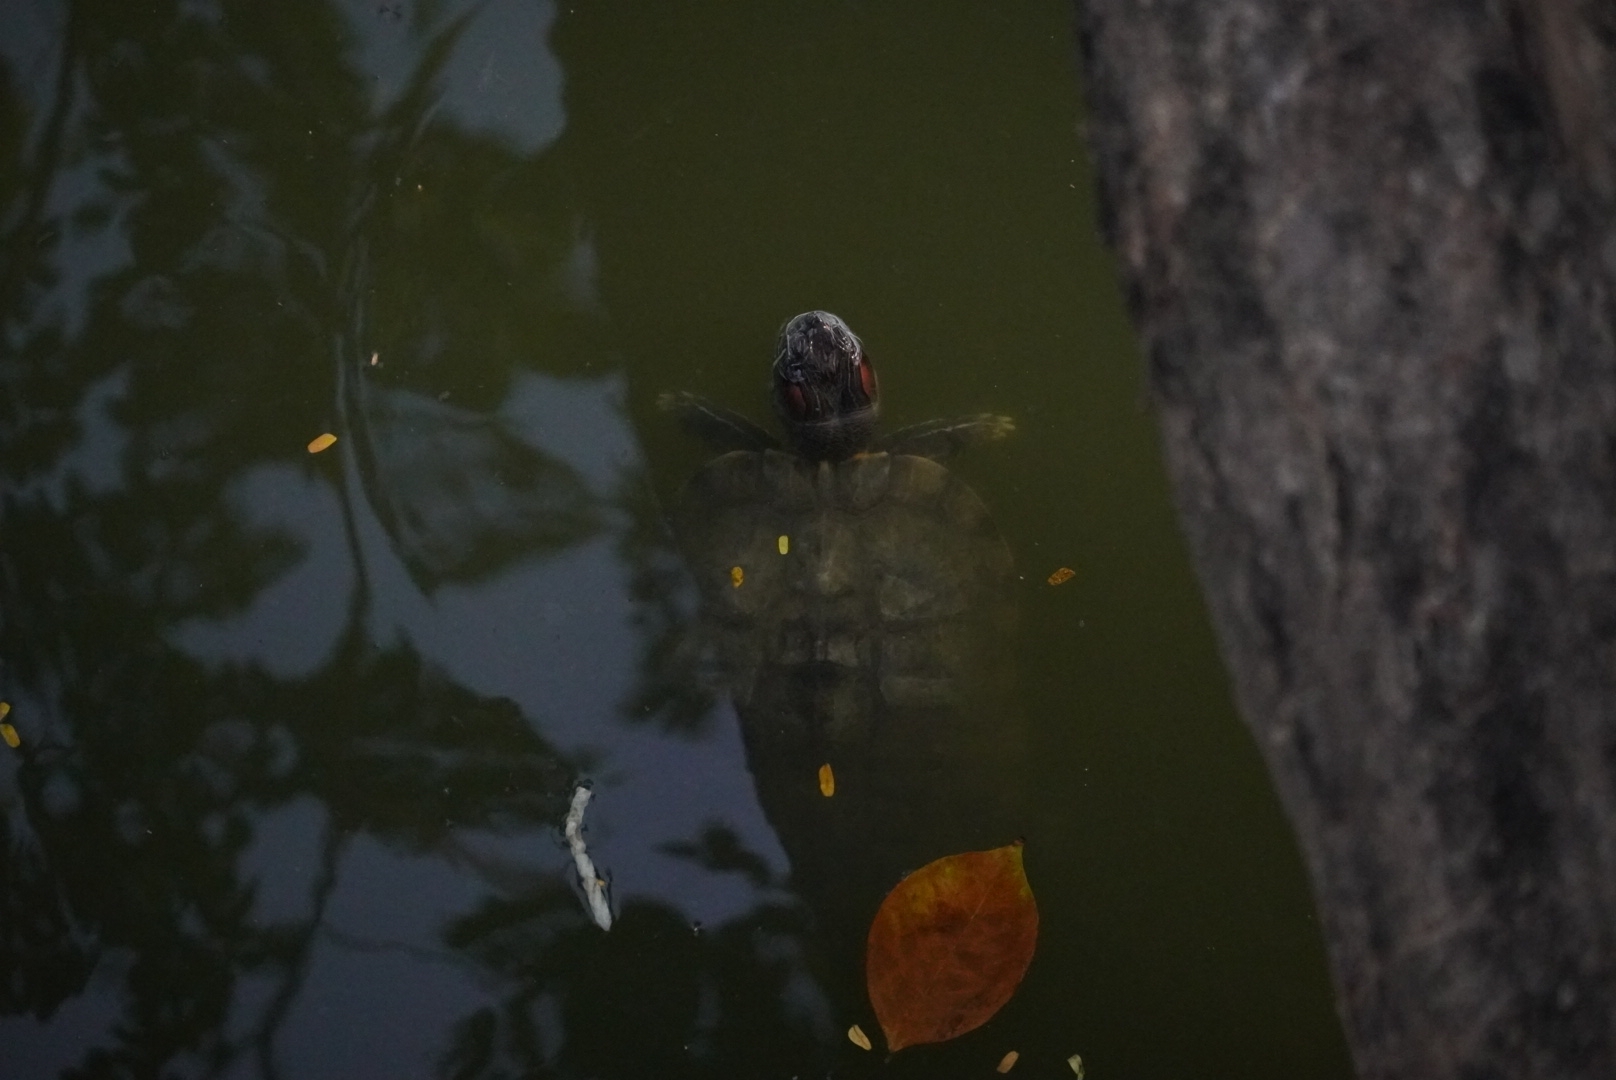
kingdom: Animalia
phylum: Chordata
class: Testudines
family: Emydidae
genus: Trachemys
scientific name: Trachemys scripta
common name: Slider
